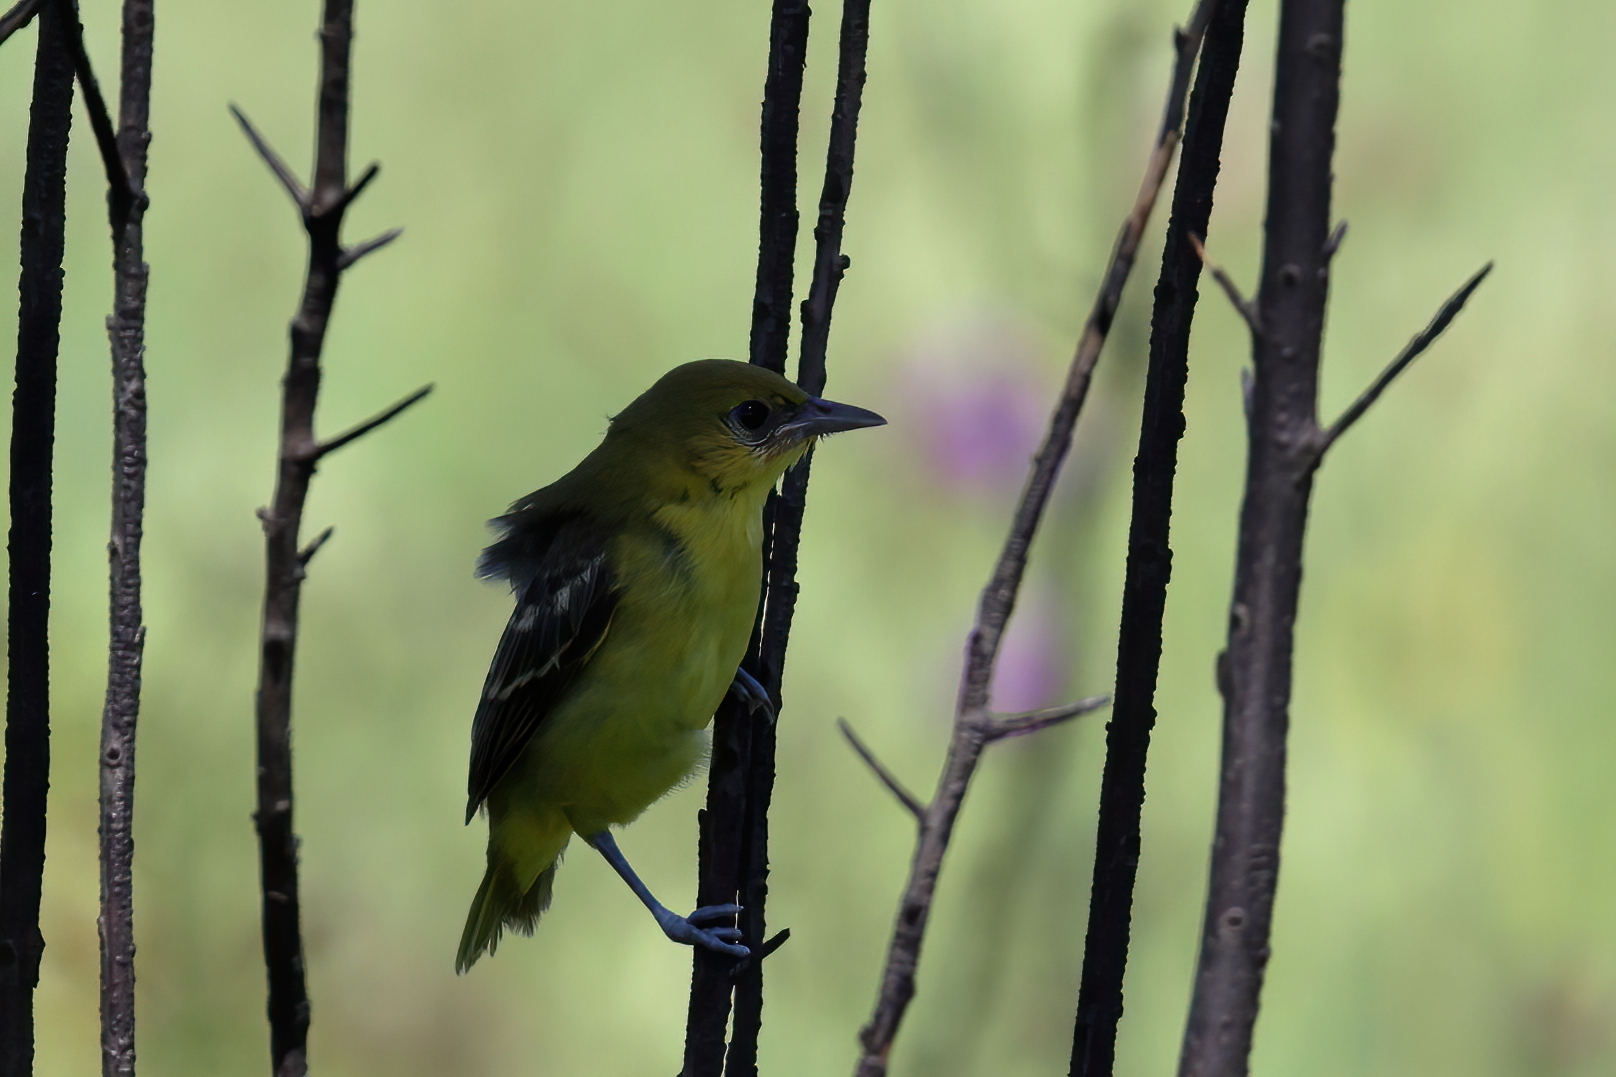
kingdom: Animalia
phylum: Chordata
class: Aves
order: Passeriformes
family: Icteridae
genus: Icterus
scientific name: Icterus spurius
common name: Orchard oriole
